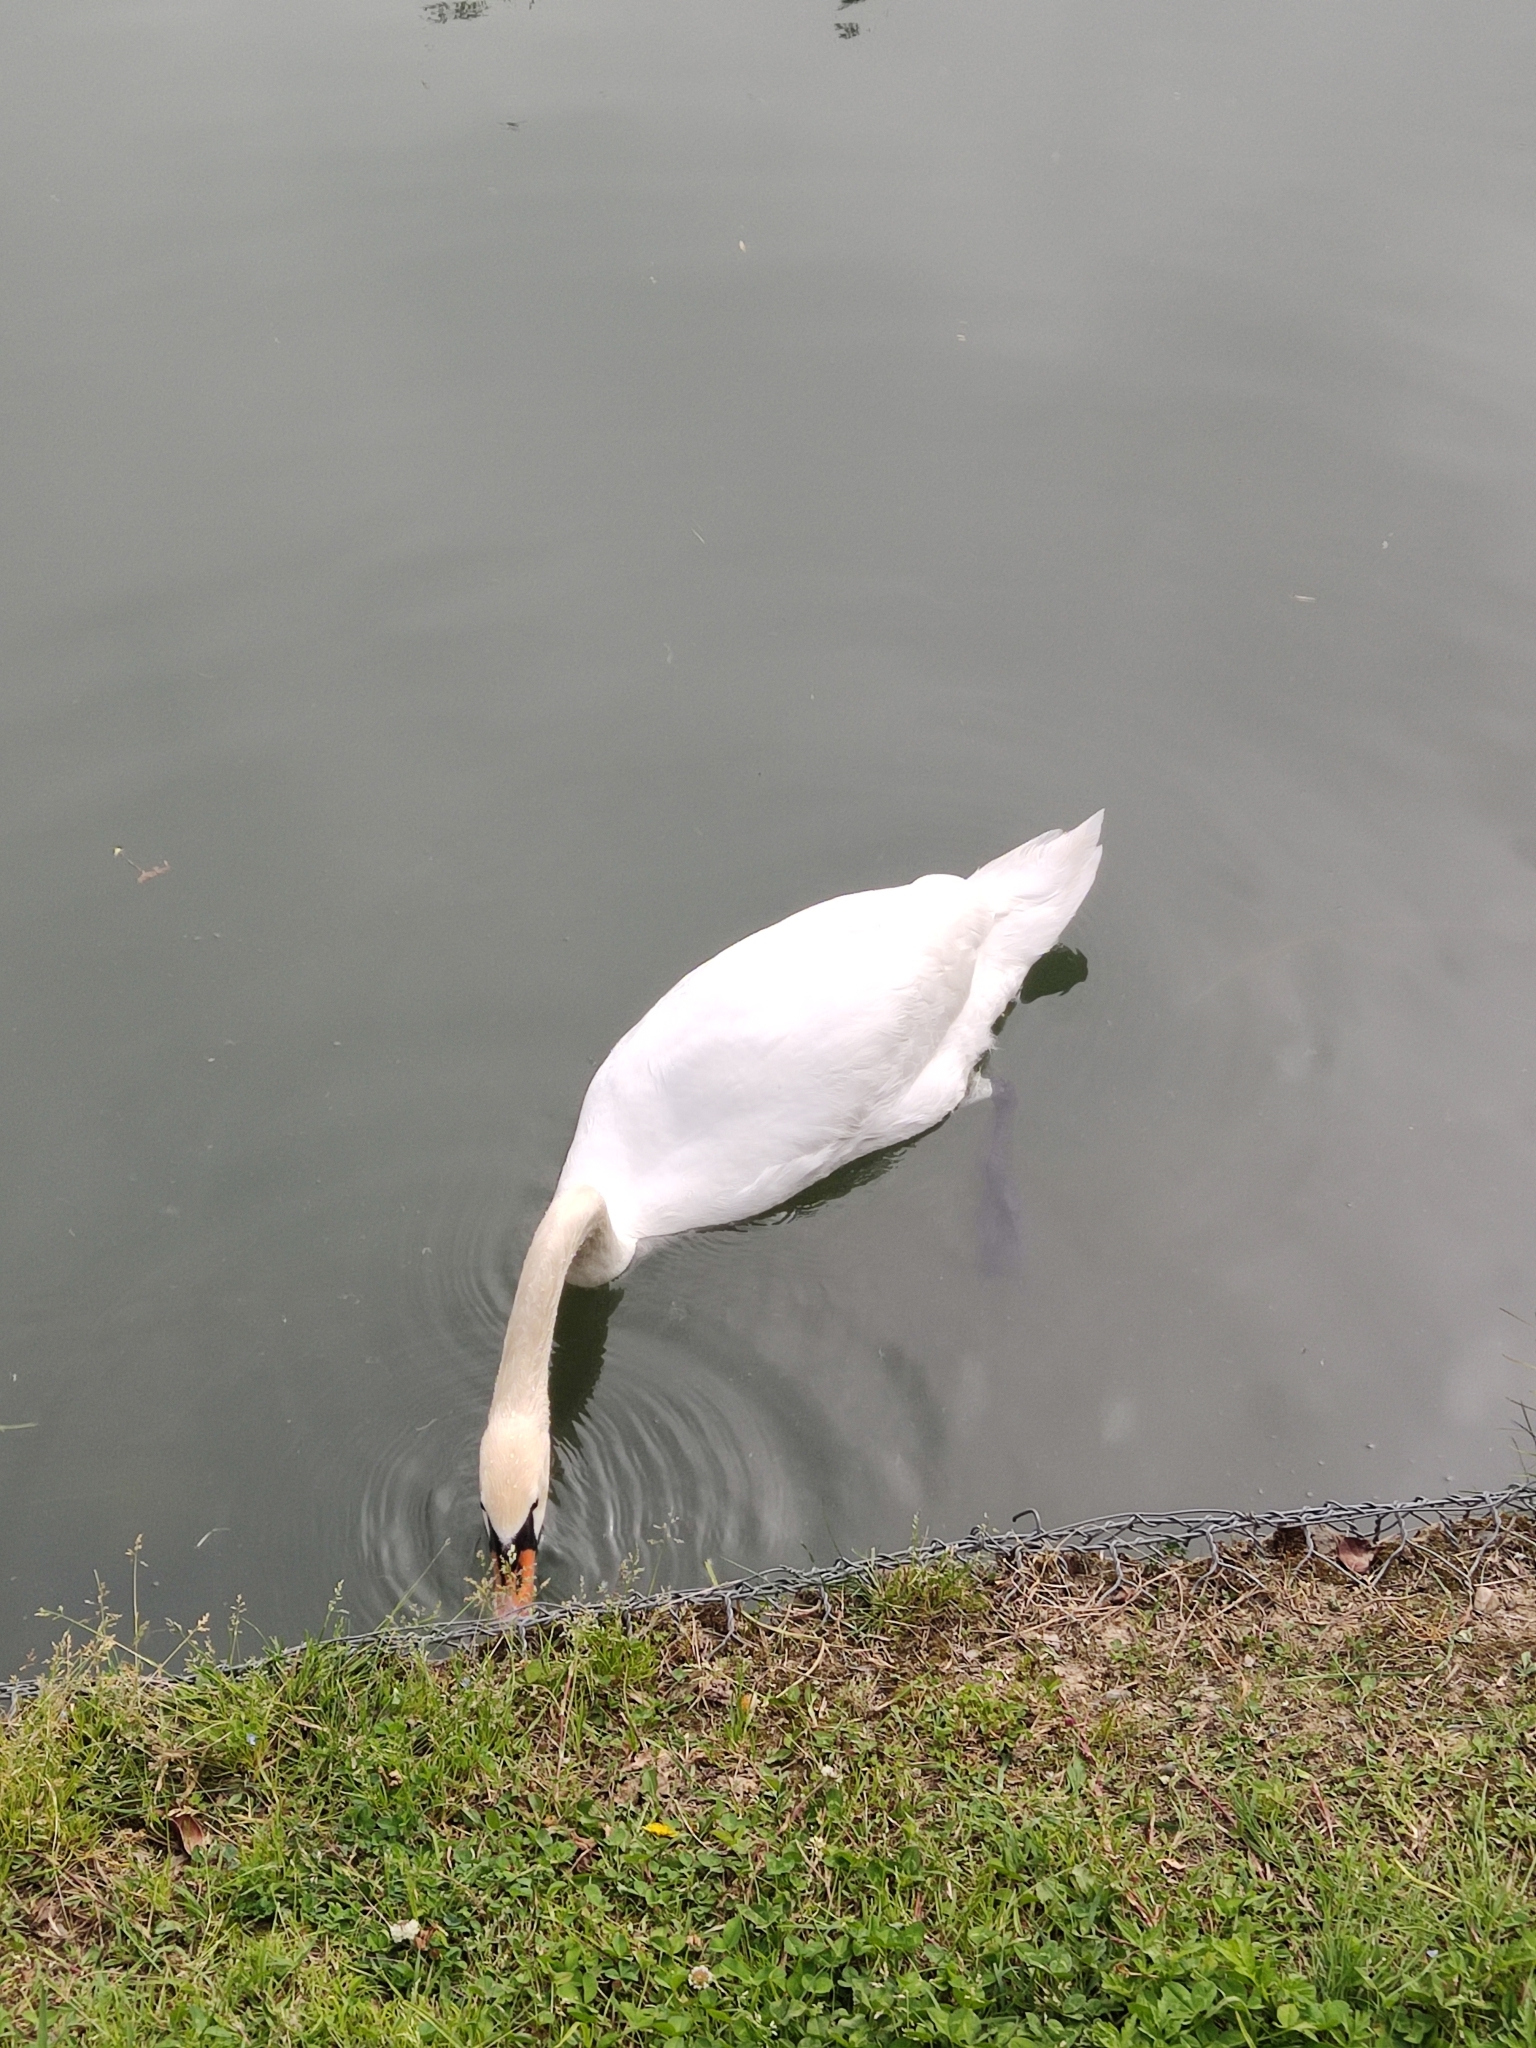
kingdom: Animalia
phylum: Chordata
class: Aves
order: Anseriformes
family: Anatidae
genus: Cygnus
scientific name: Cygnus olor
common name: Mute swan
